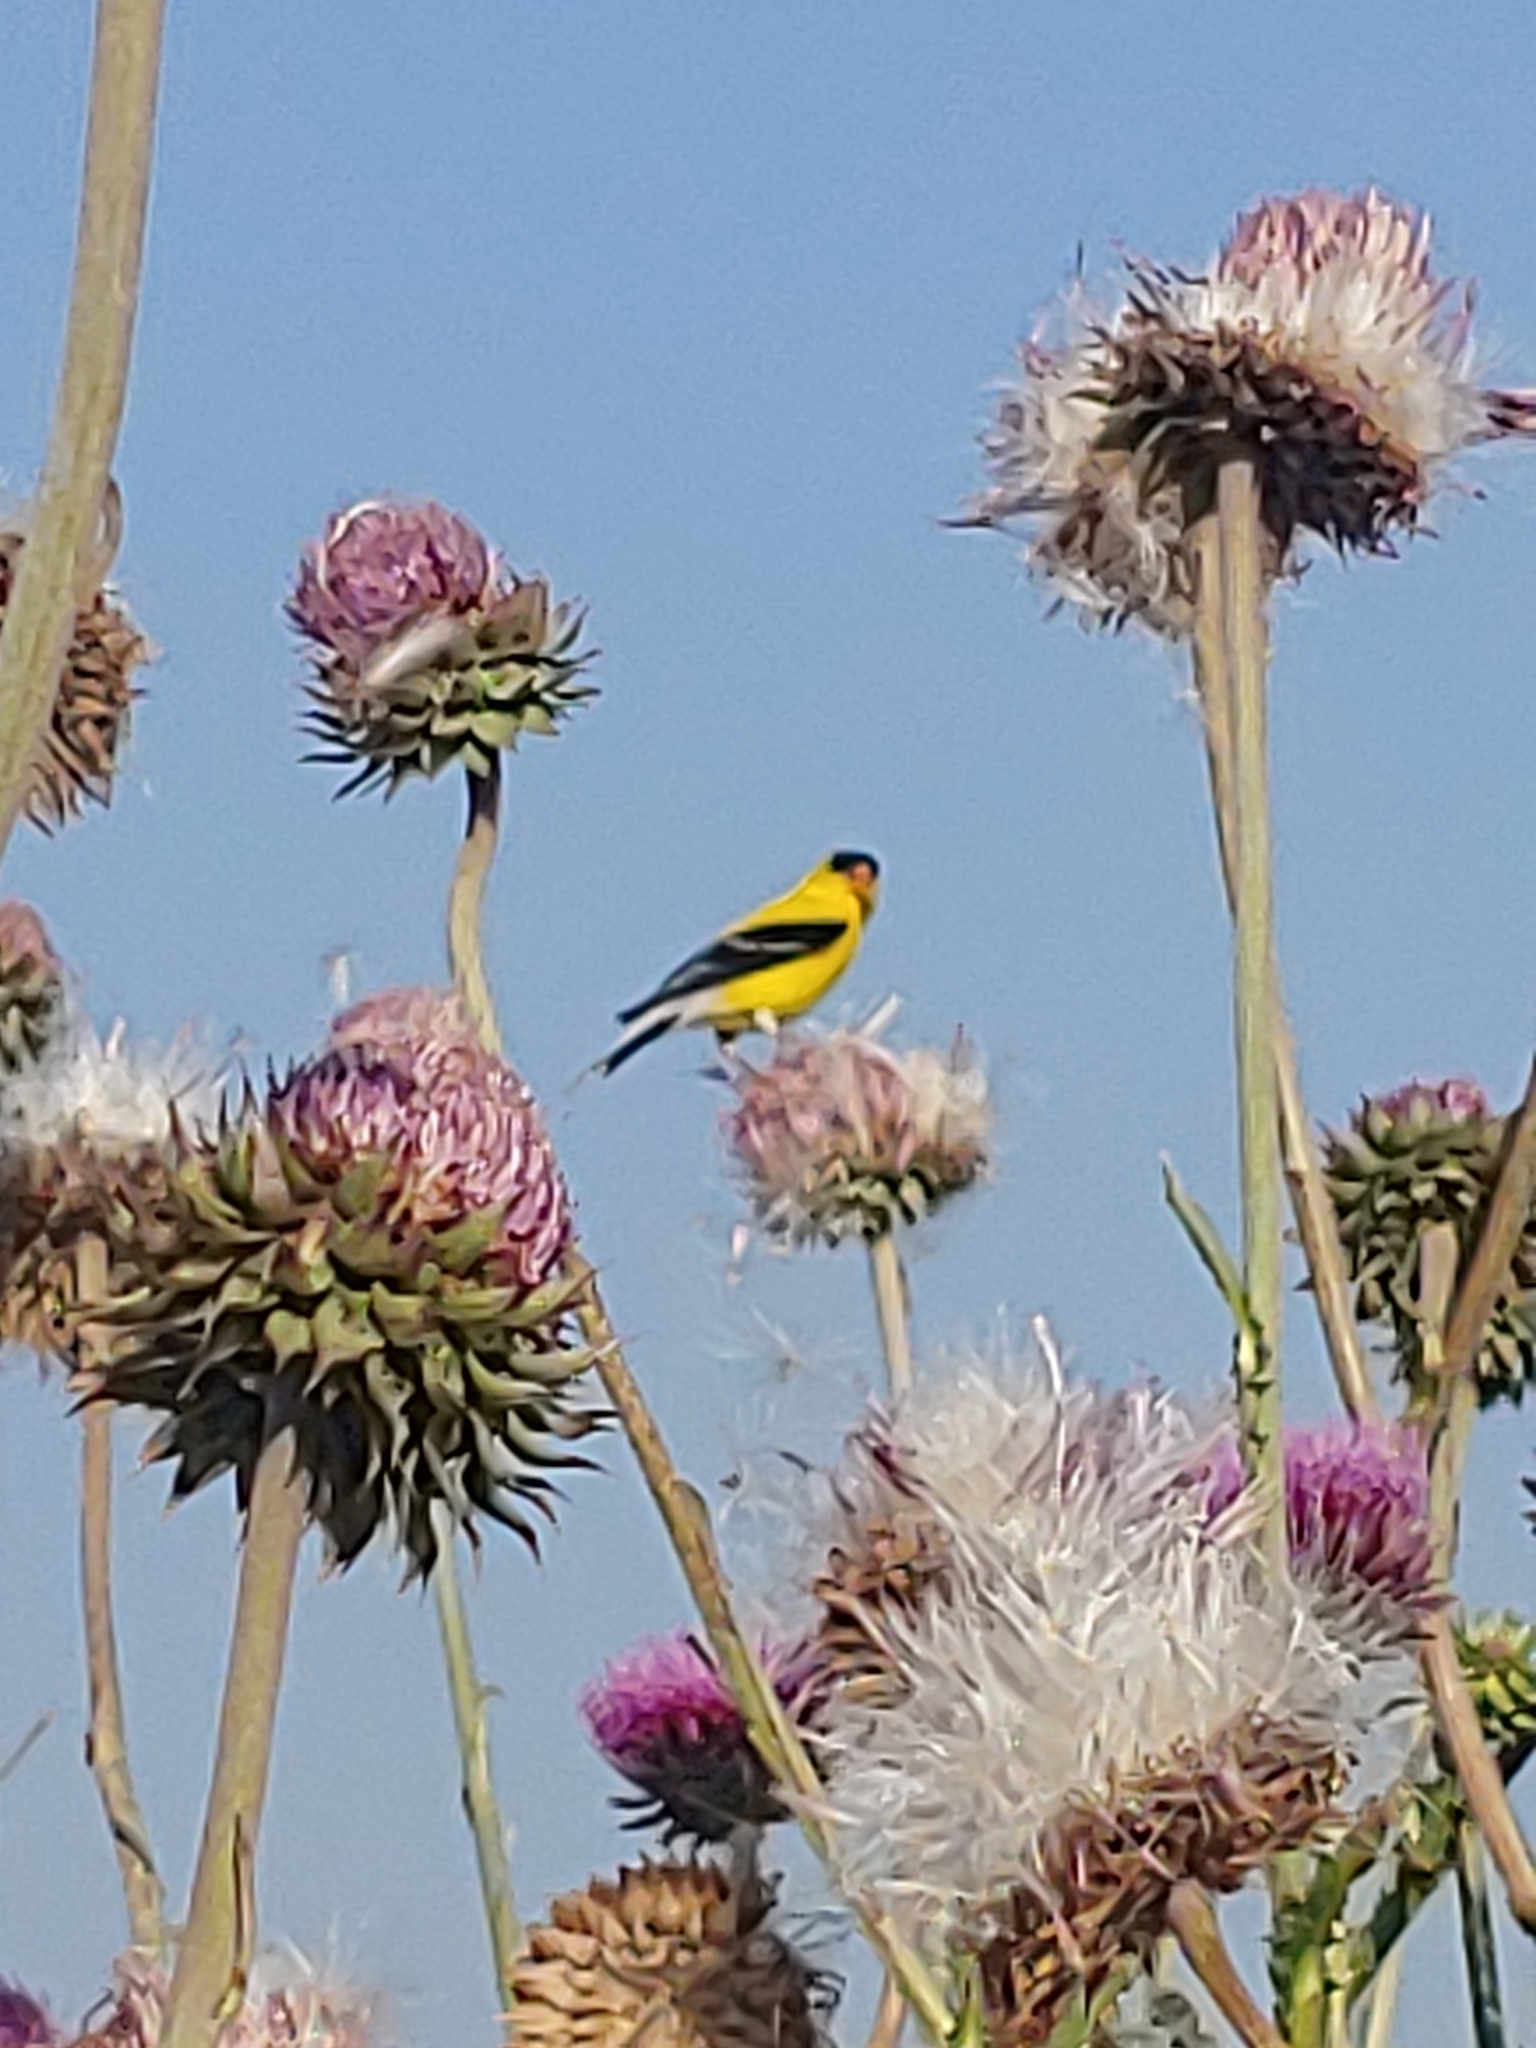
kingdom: Animalia
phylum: Chordata
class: Aves
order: Passeriformes
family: Fringillidae
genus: Spinus
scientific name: Spinus tristis
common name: American goldfinch
